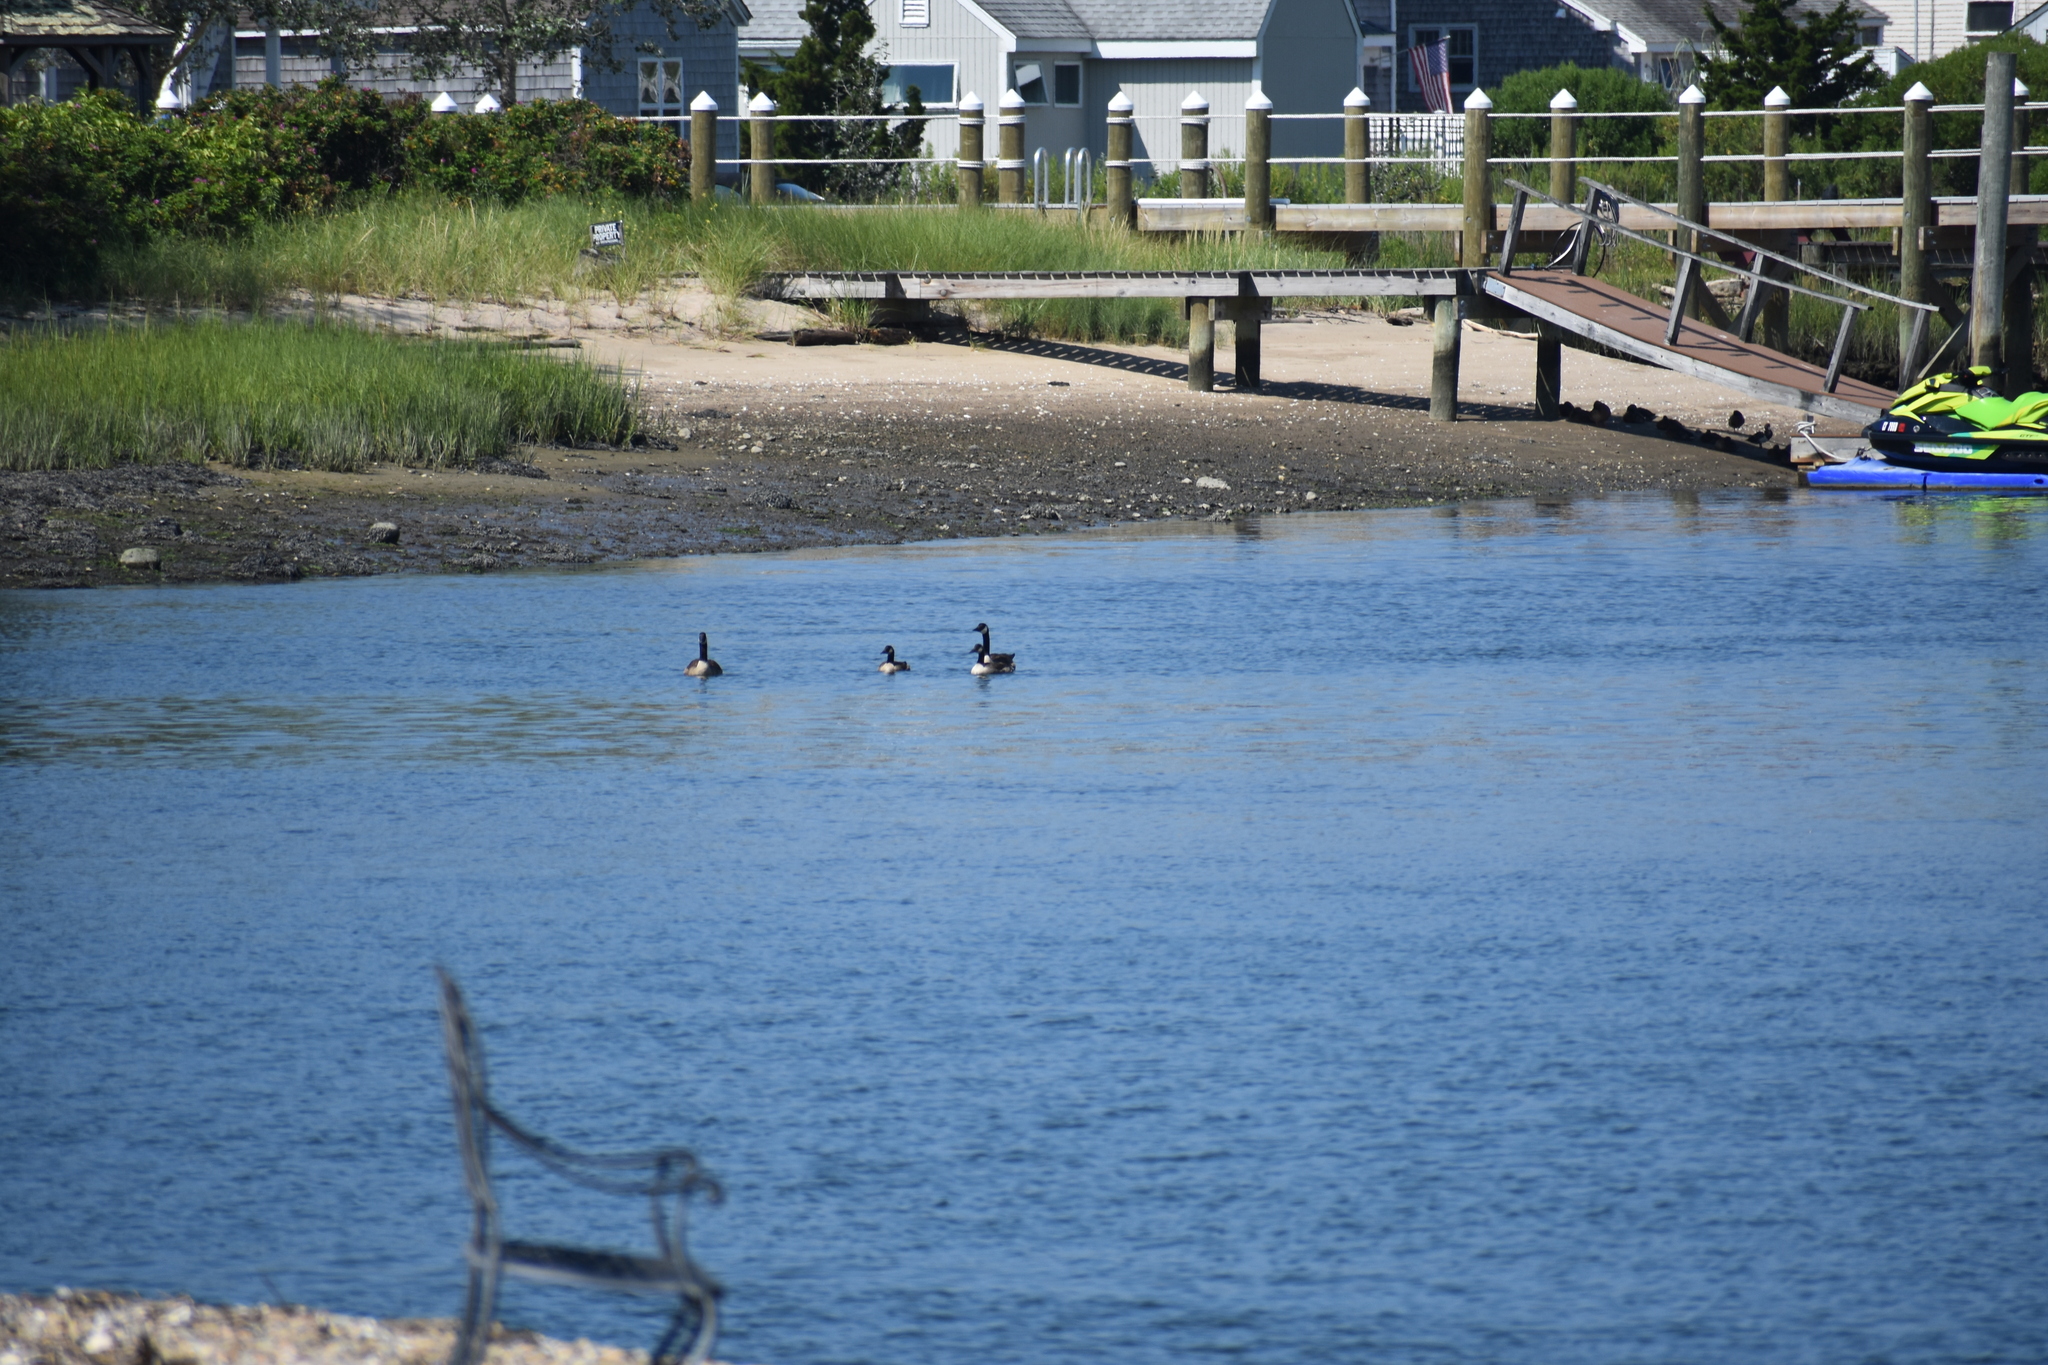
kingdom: Animalia
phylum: Chordata
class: Aves
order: Anseriformes
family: Anatidae
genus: Branta
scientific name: Branta canadensis
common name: Canada goose
